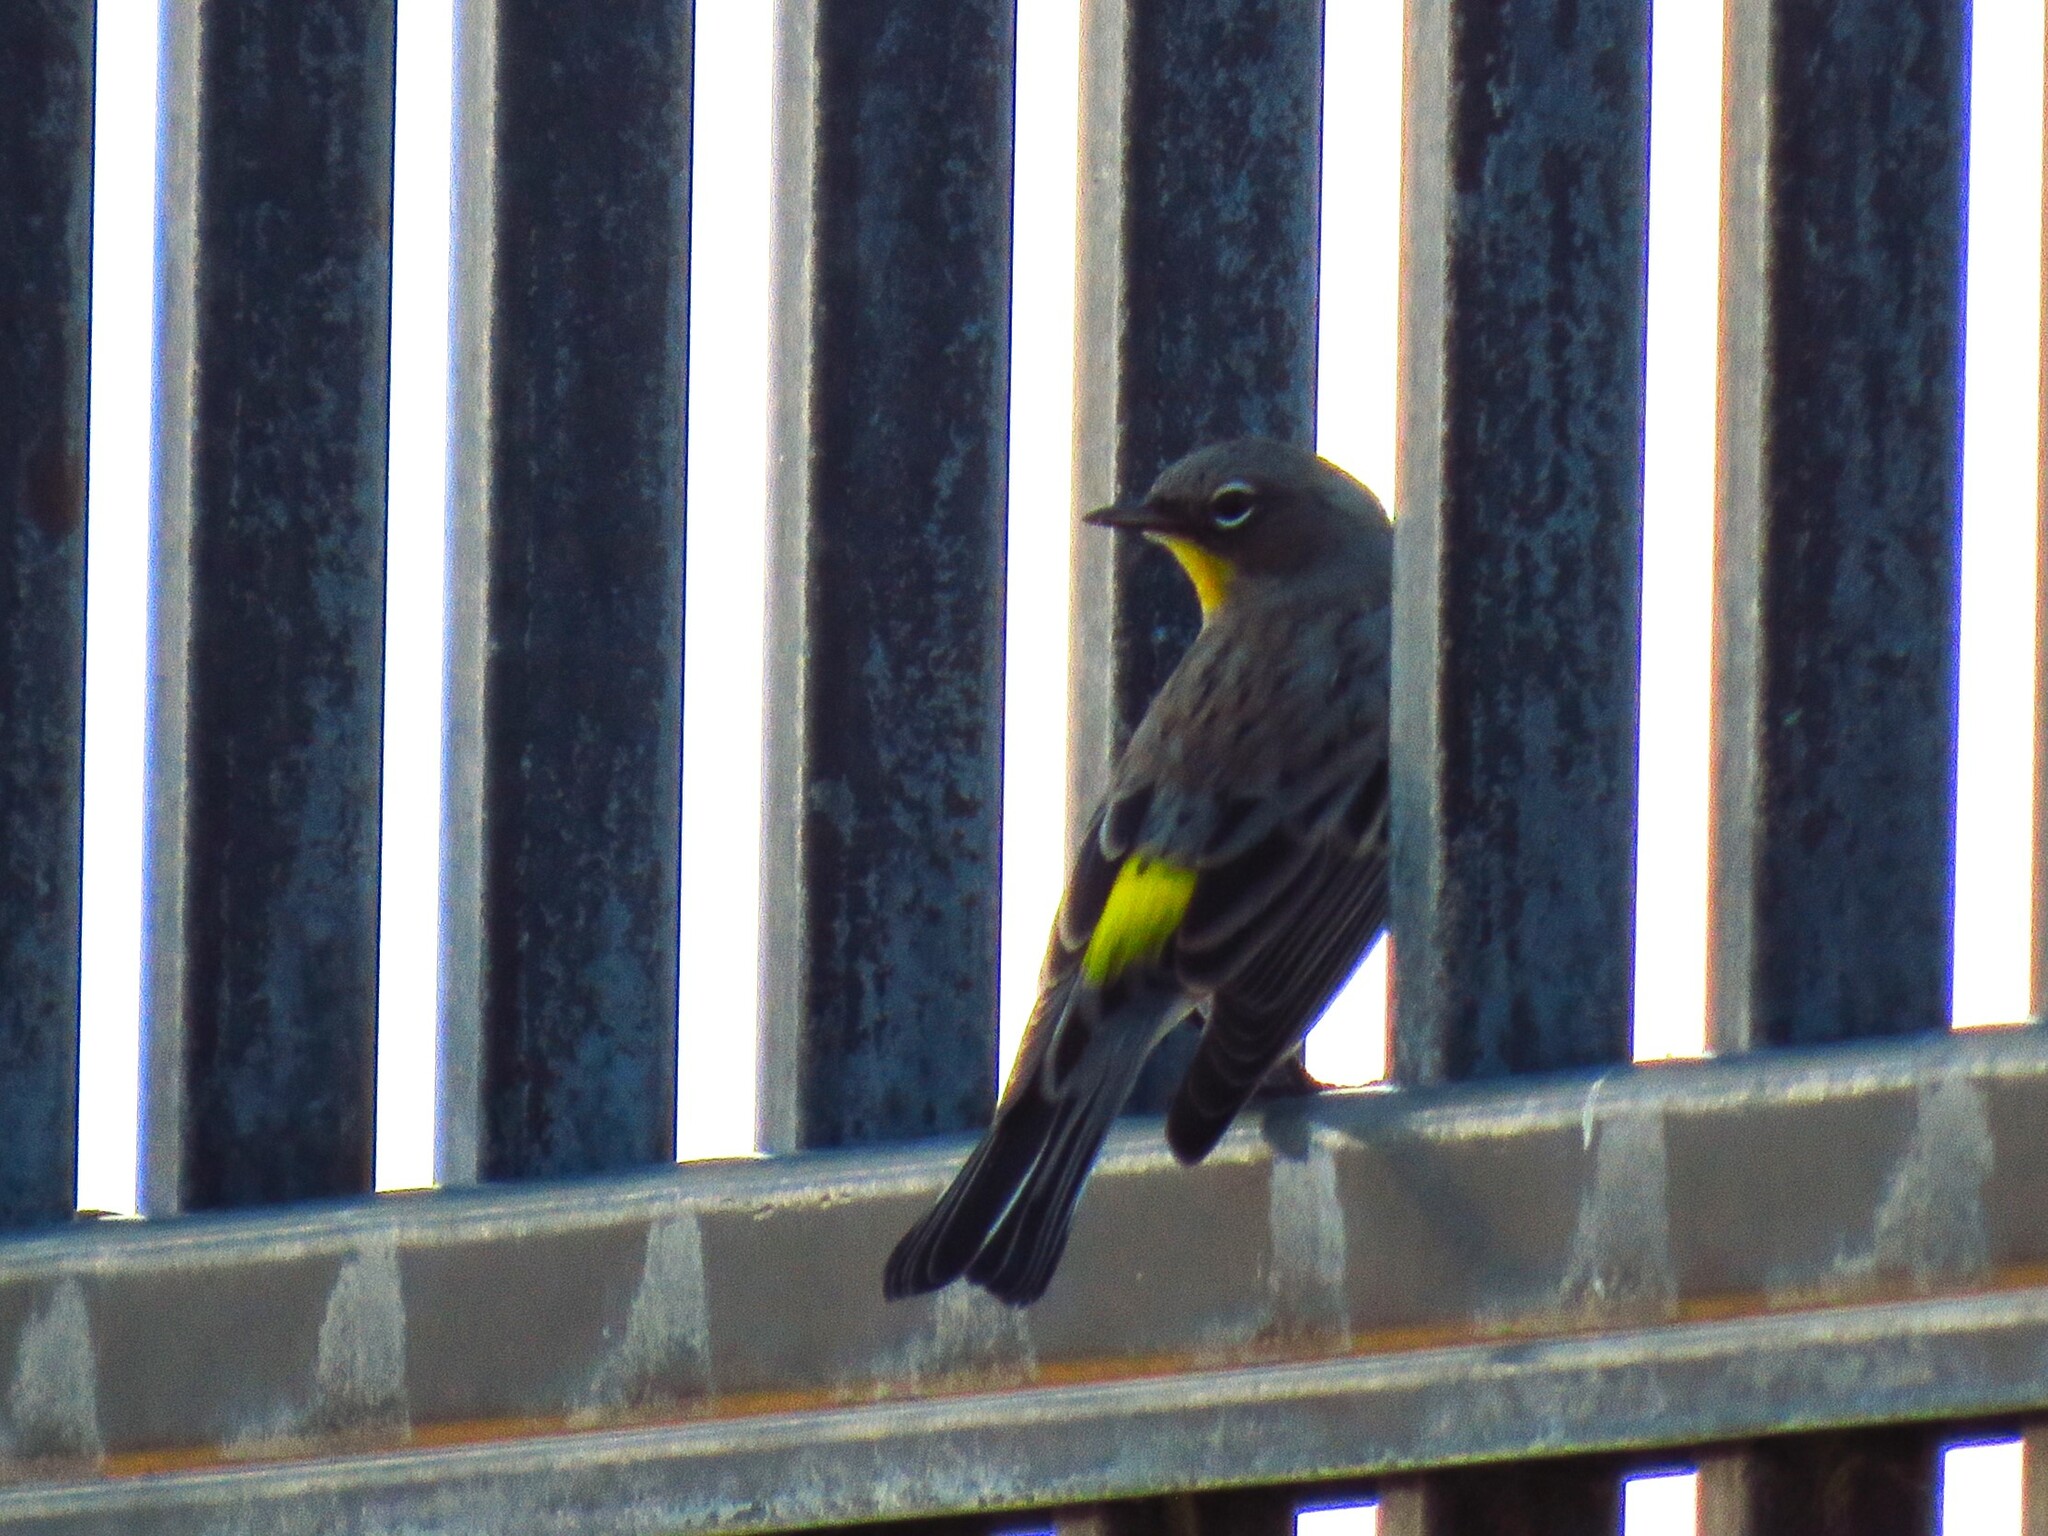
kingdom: Animalia
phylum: Chordata
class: Aves
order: Passeriformes
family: Parulidae
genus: Setophaga
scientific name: Setophaga coronata
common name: Myrtle warbler
